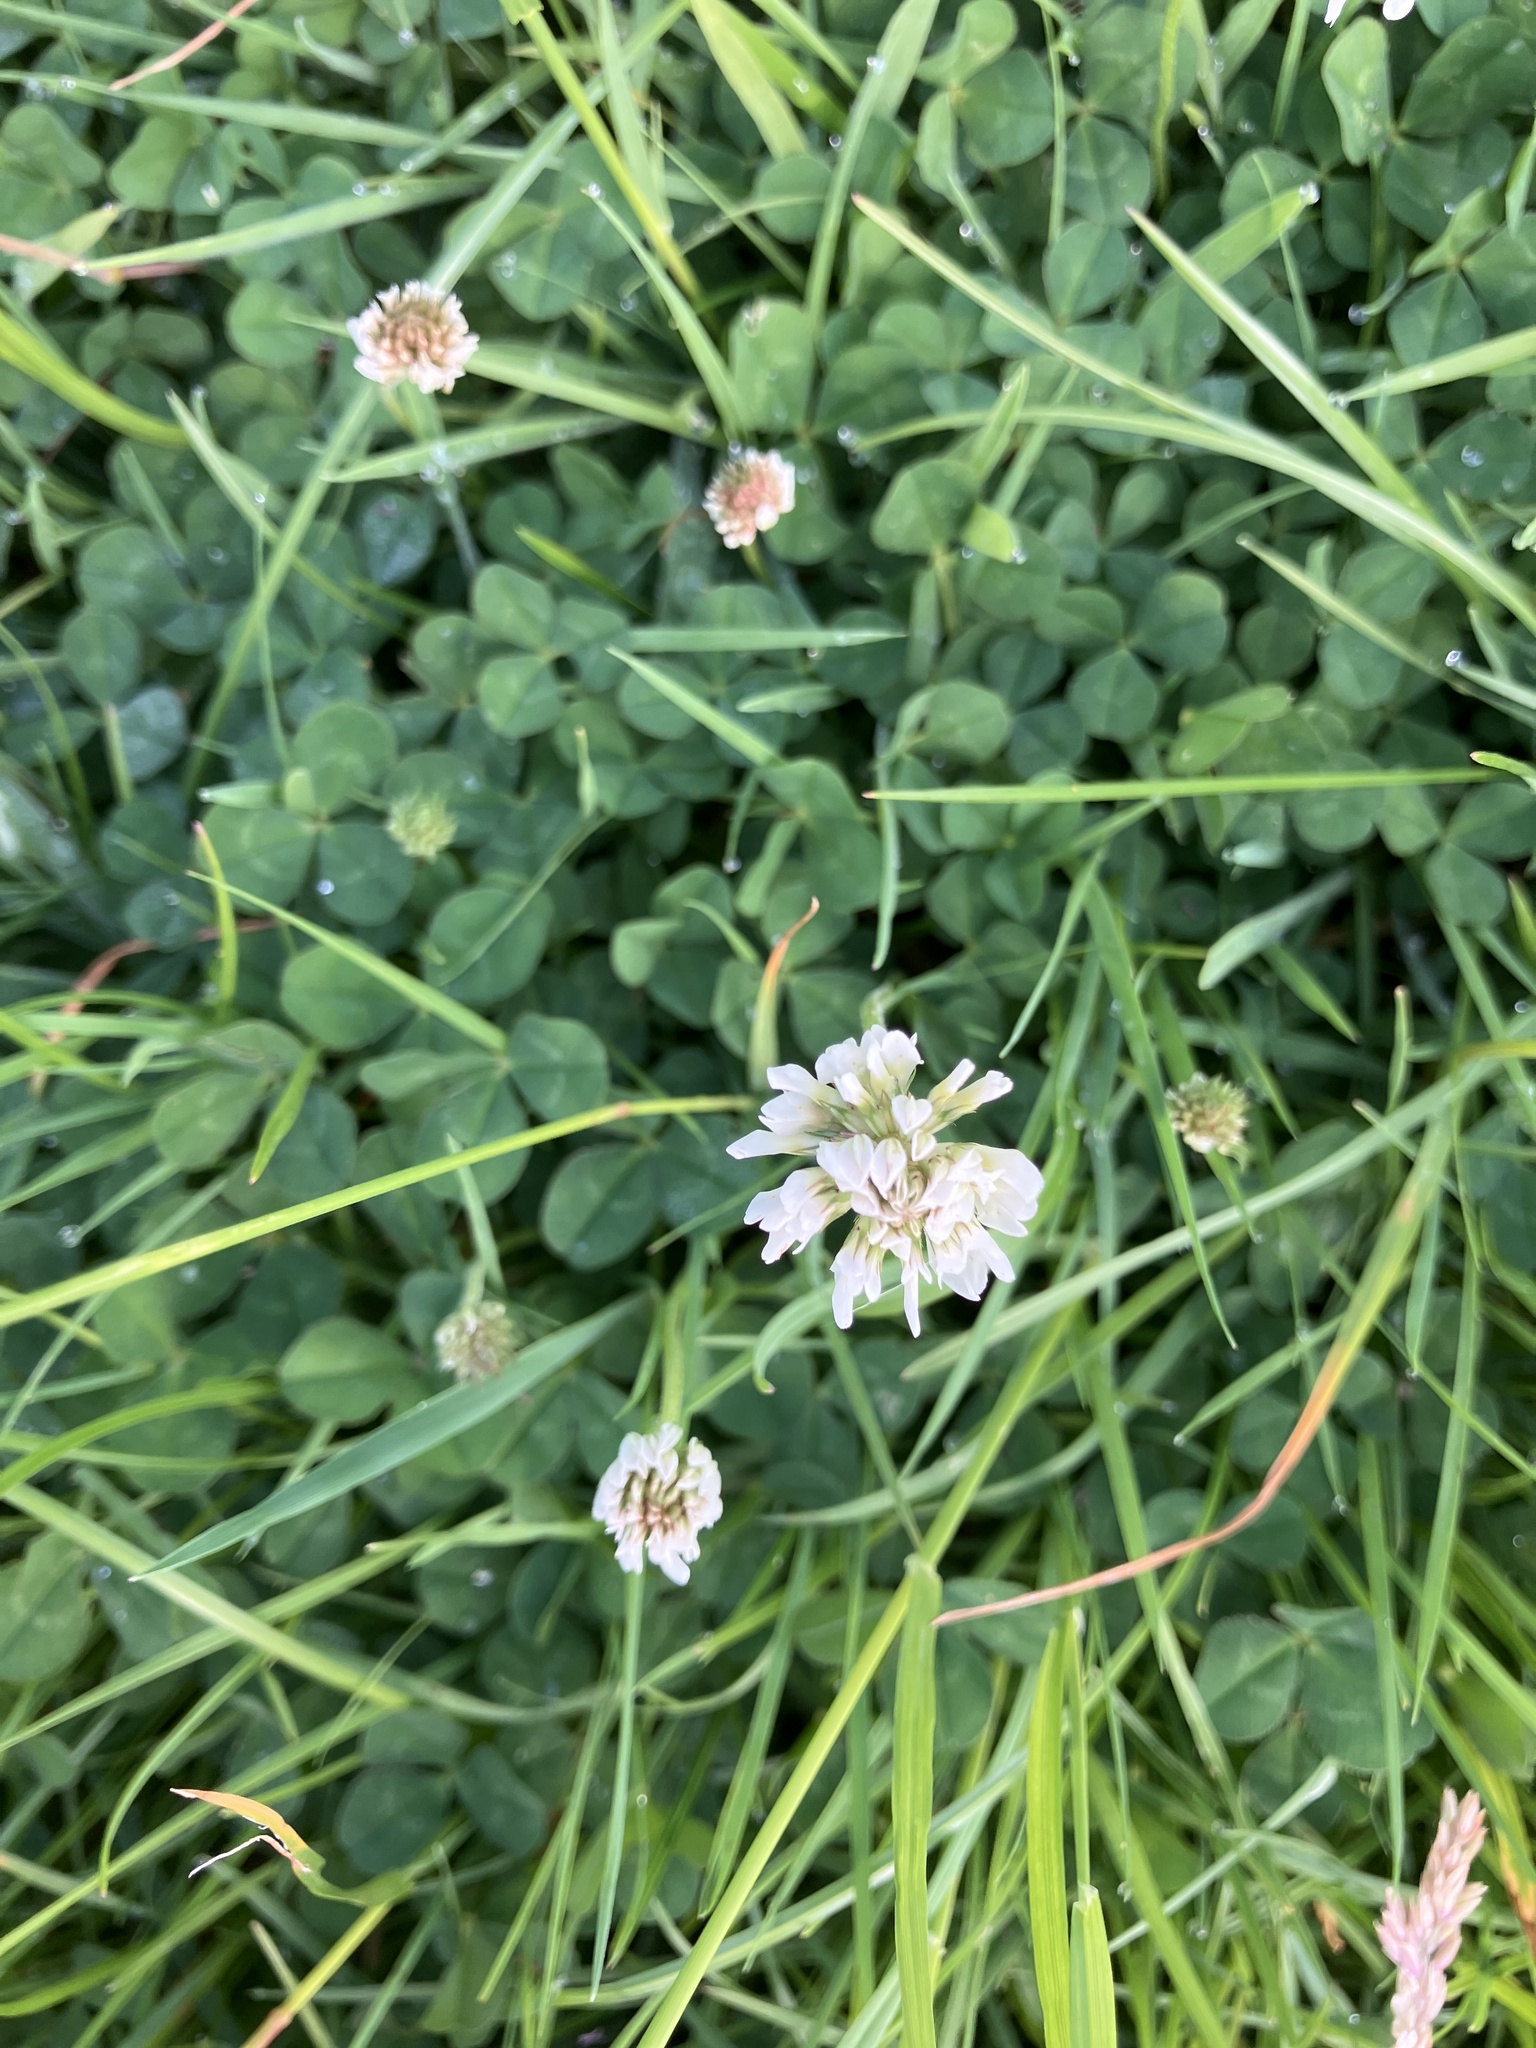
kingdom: Plantae
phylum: Tracheophyta
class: Magnoliopsida
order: Fabales
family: Fabaceae
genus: Trifolium
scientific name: Trifolium repens
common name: White clover
